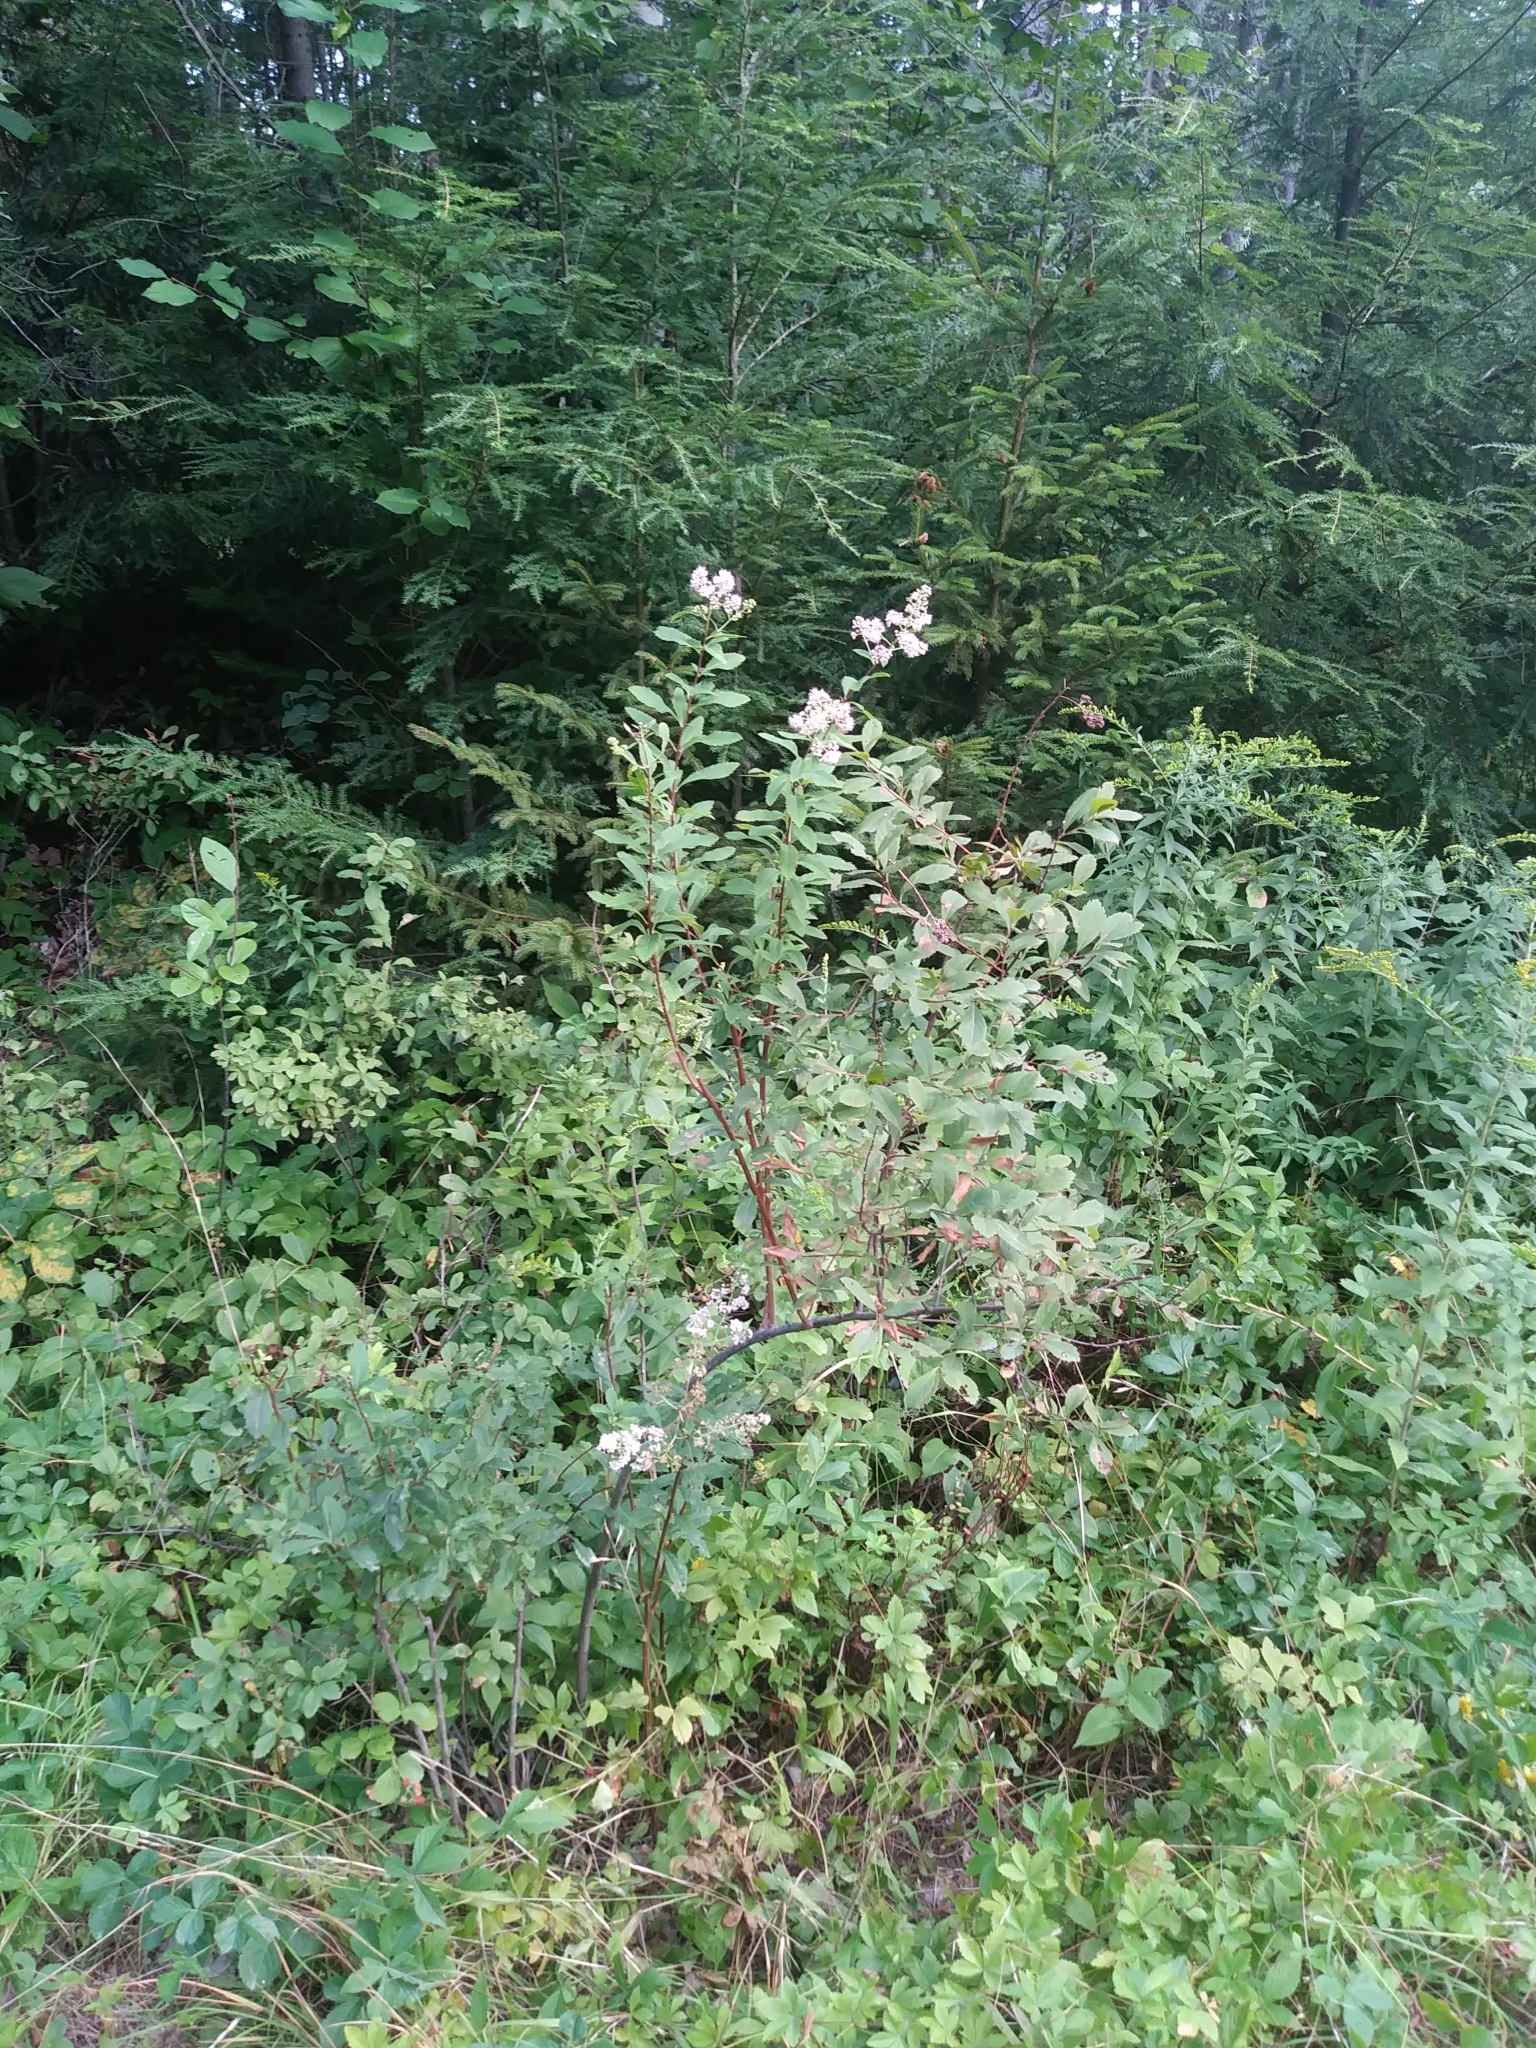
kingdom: Plantae
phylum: Tracheophyta
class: Magnoliopsida
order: Rosales
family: Rosaceae
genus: Spiraea
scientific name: Spiraea alba
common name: Pale bridewort
